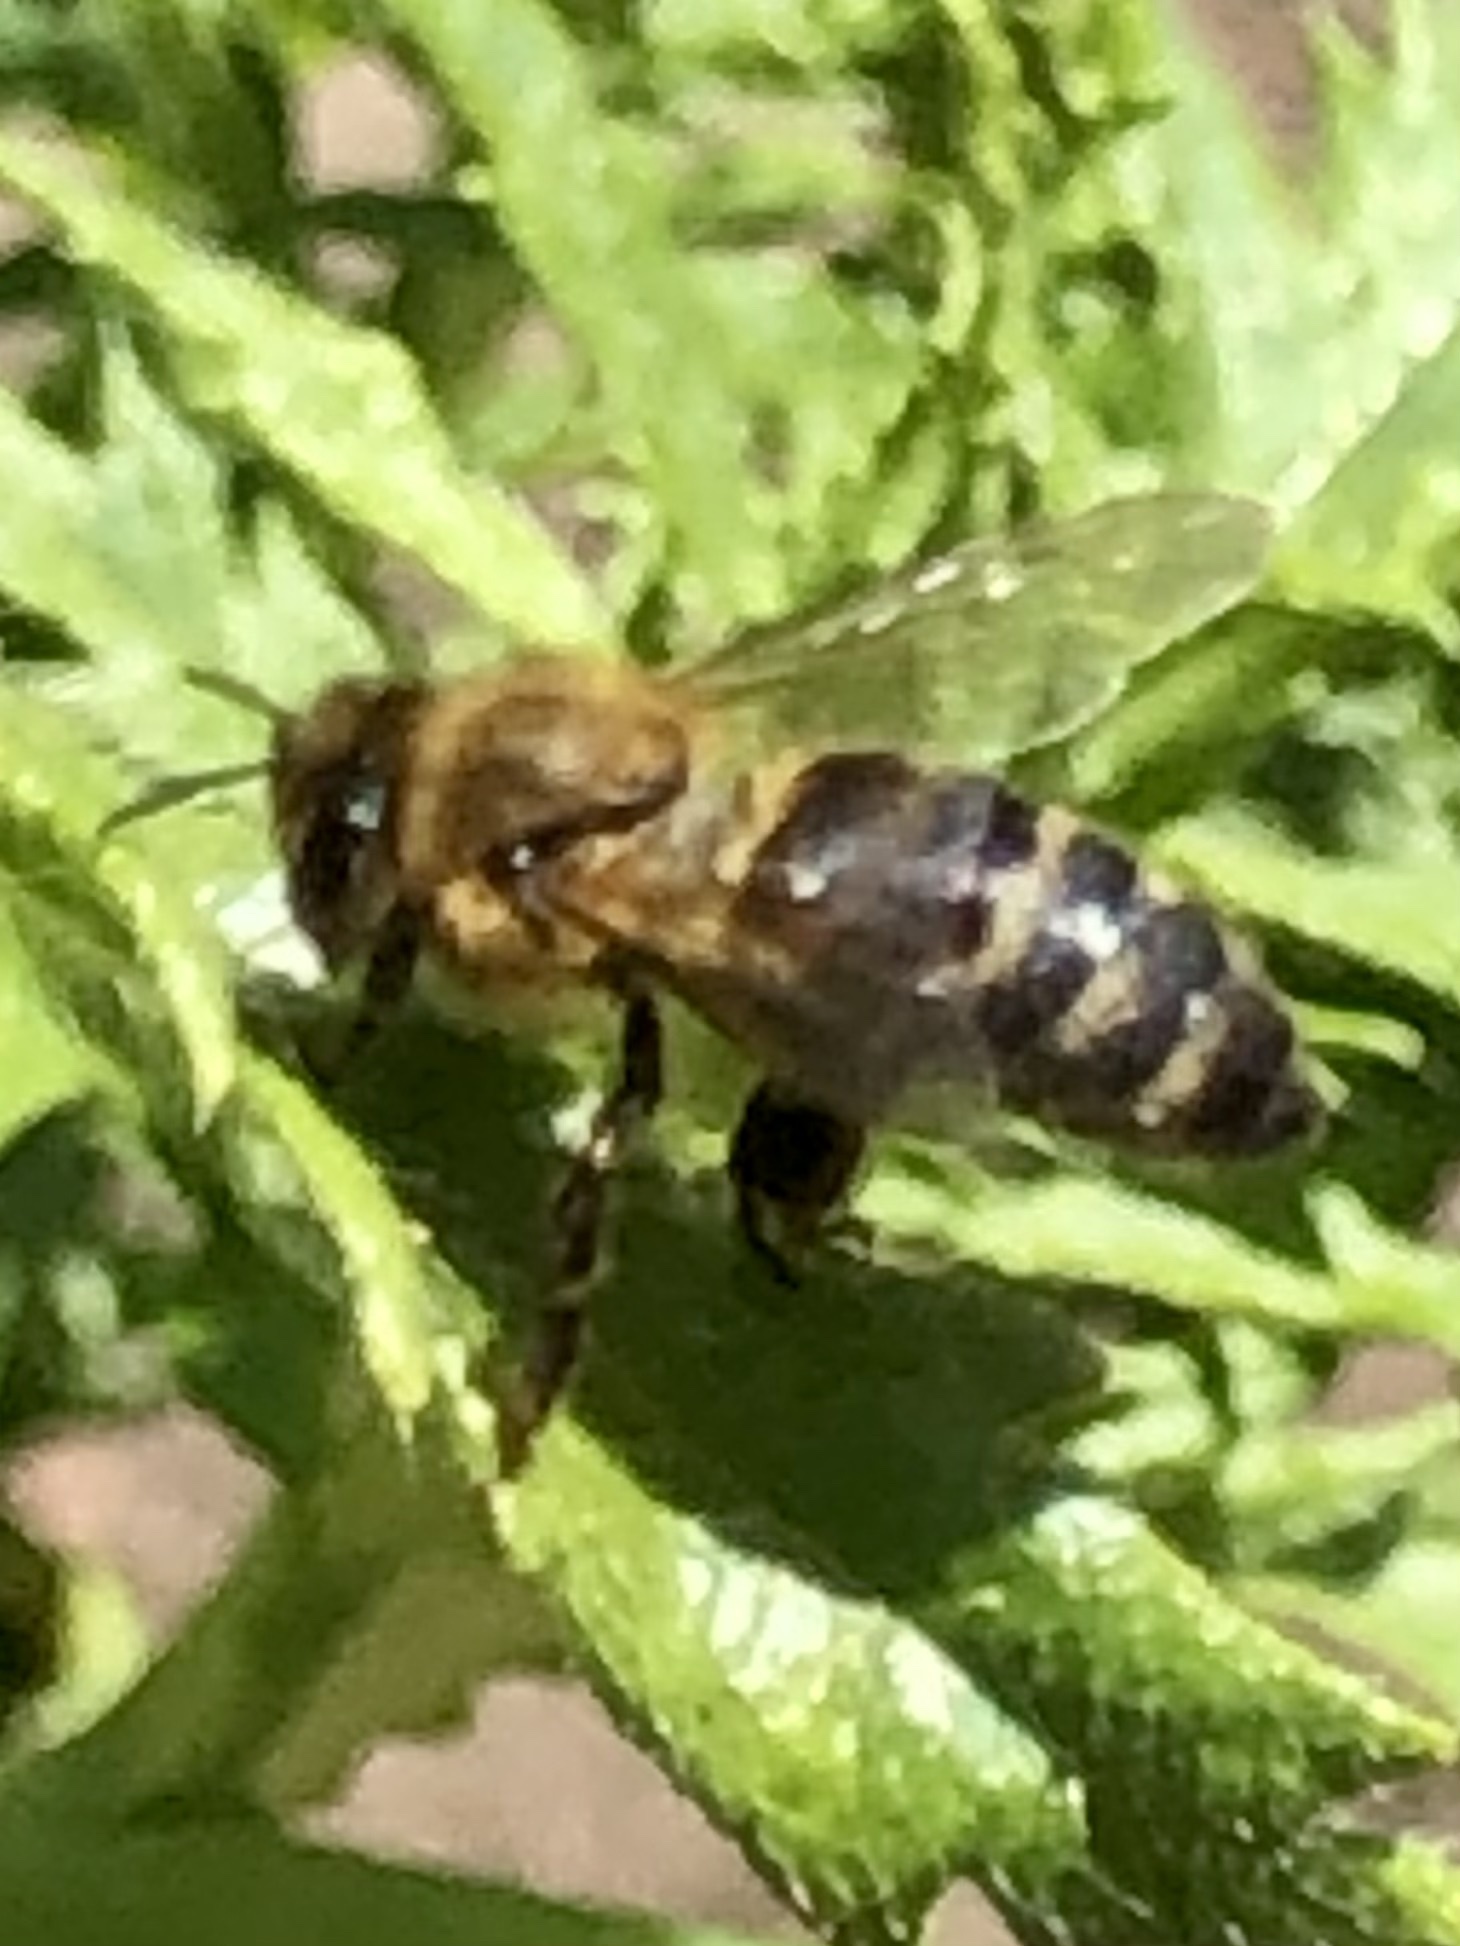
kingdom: Animalia
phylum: Arthropoda
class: Insecta
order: Hymenoptera
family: Apidae
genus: Apis
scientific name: Apis mellifera
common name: Honey bee
